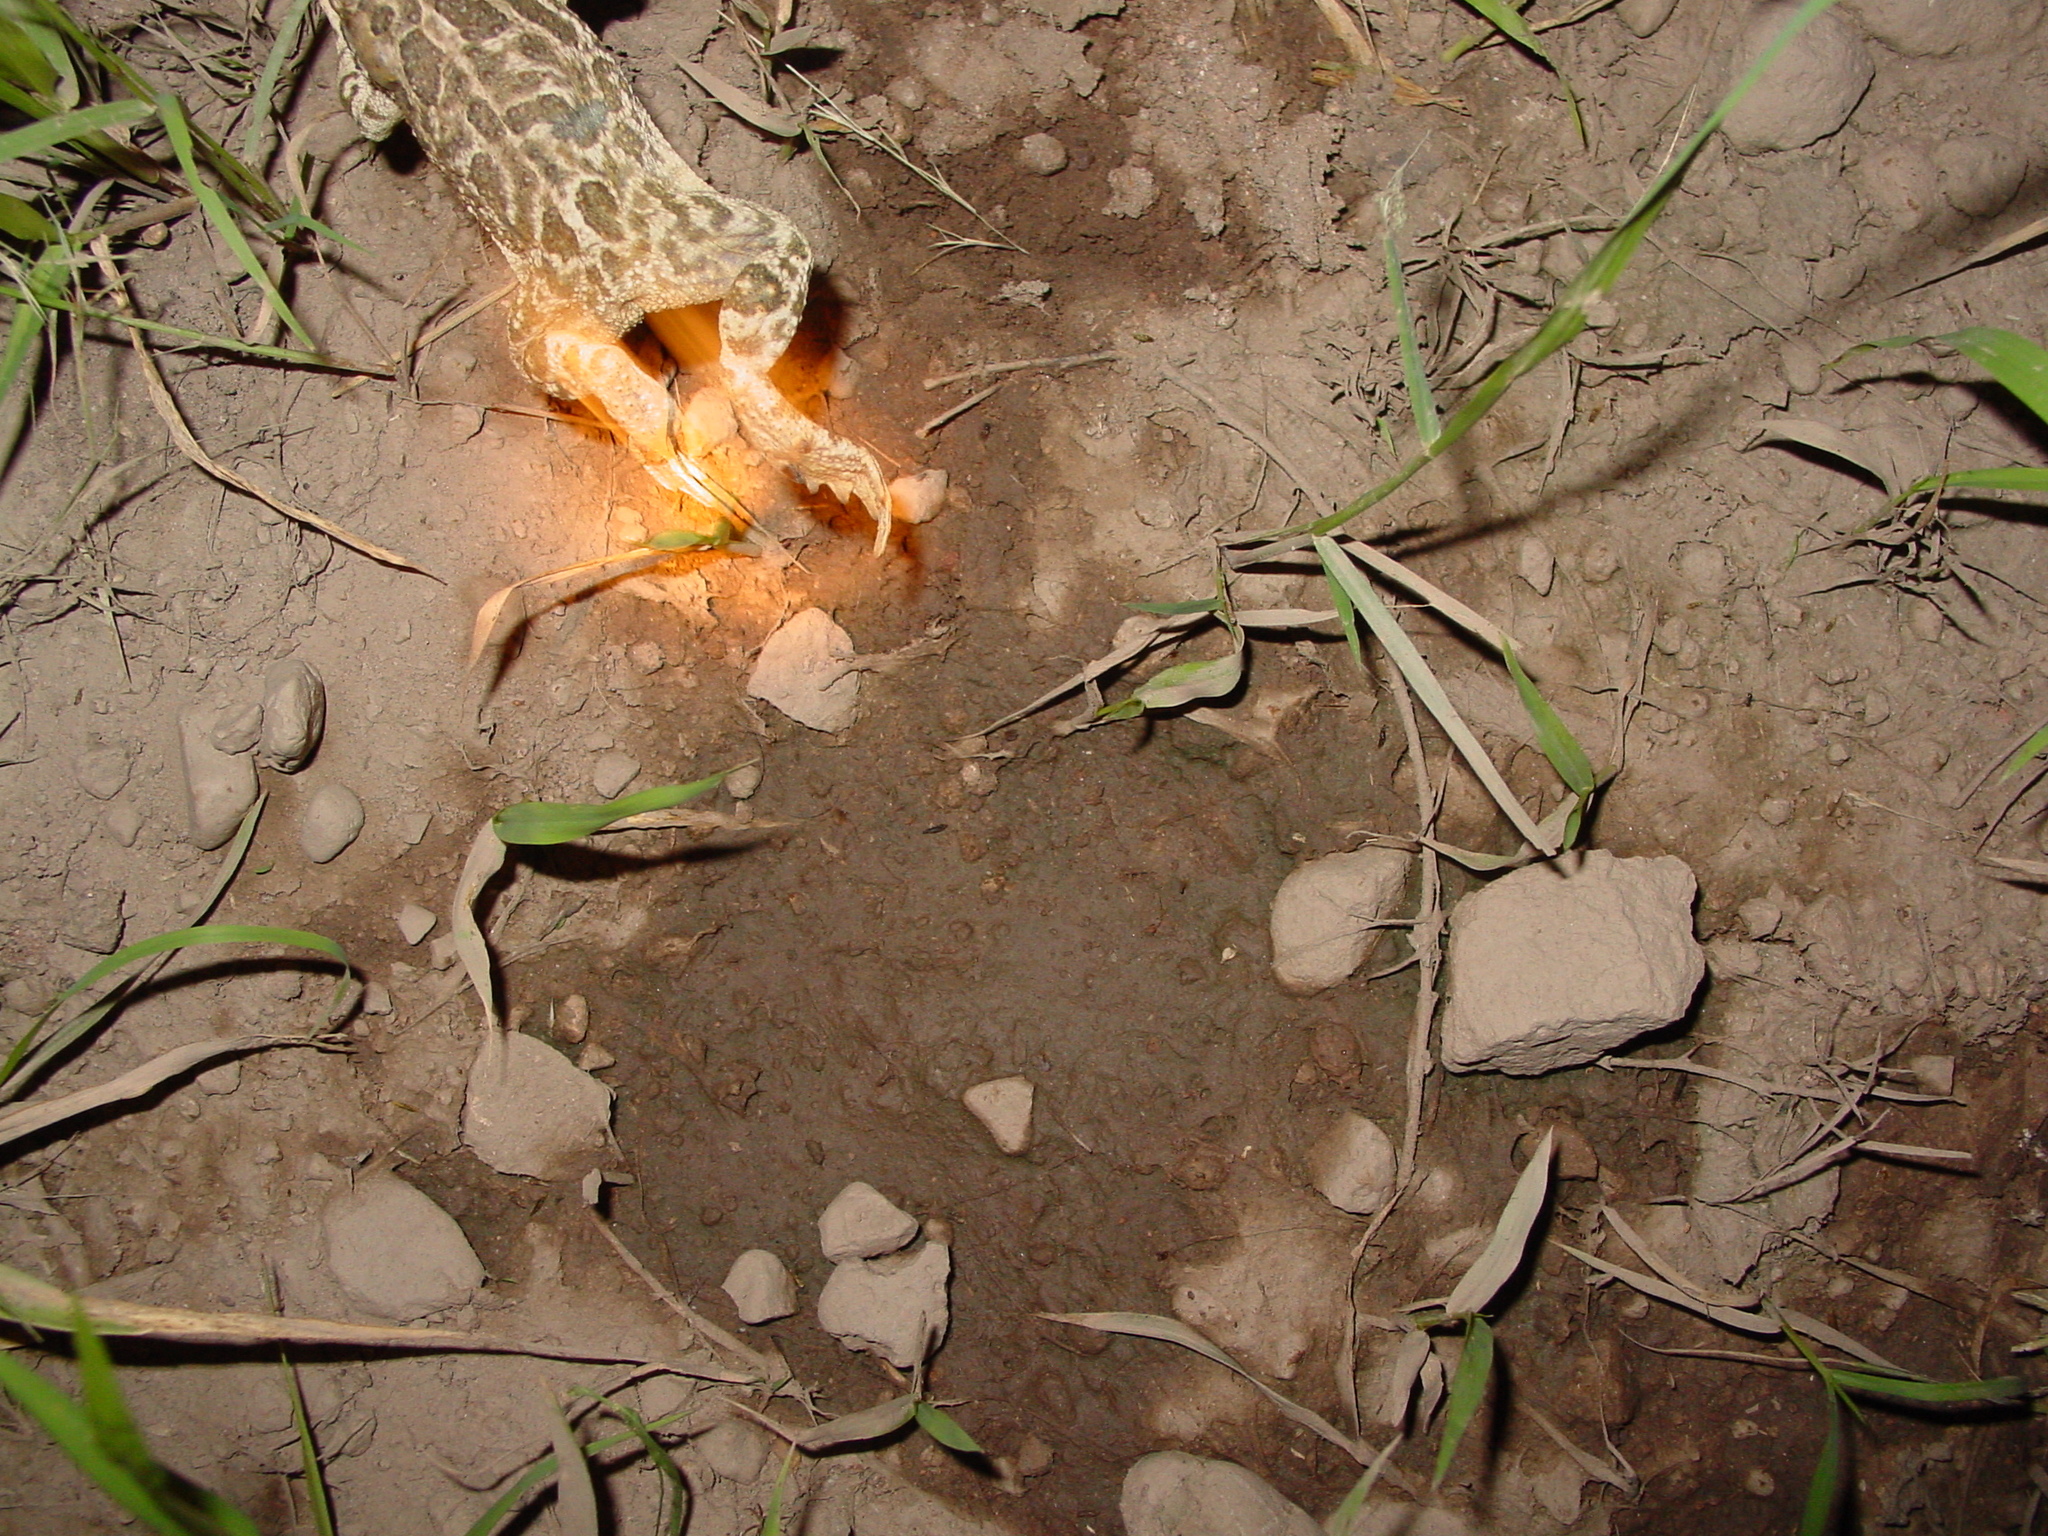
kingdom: Animalia
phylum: Chordata
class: Amphibia
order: Anura
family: Bufonidae
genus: Anaxyrus
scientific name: Anaxyrus cognatus
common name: Great plains toad
